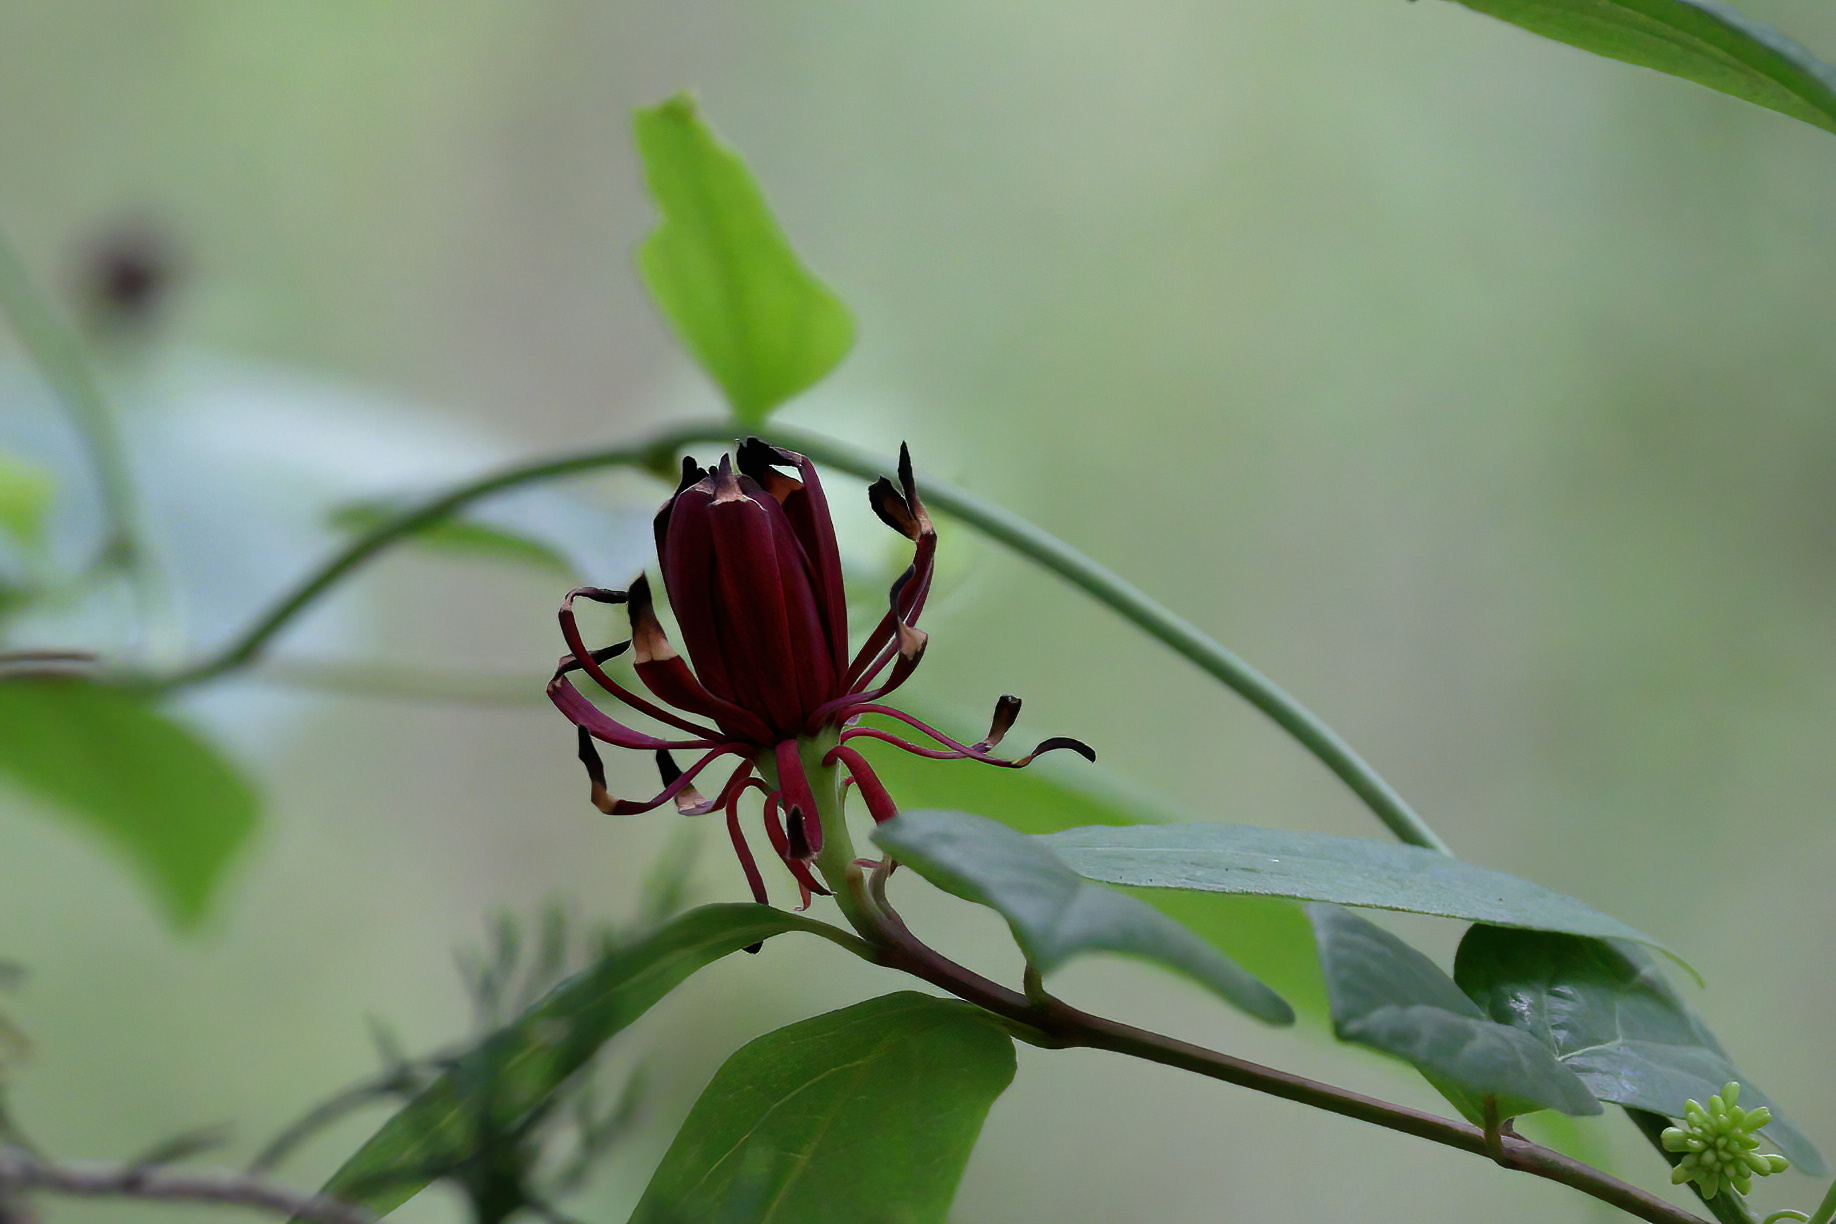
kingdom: Plantae
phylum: Tracheophyta
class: Magnoliopsida
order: Laurales
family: Calycanthaceae
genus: Calycanthus
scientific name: Calycanthus floridus
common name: Carolina-allspice
